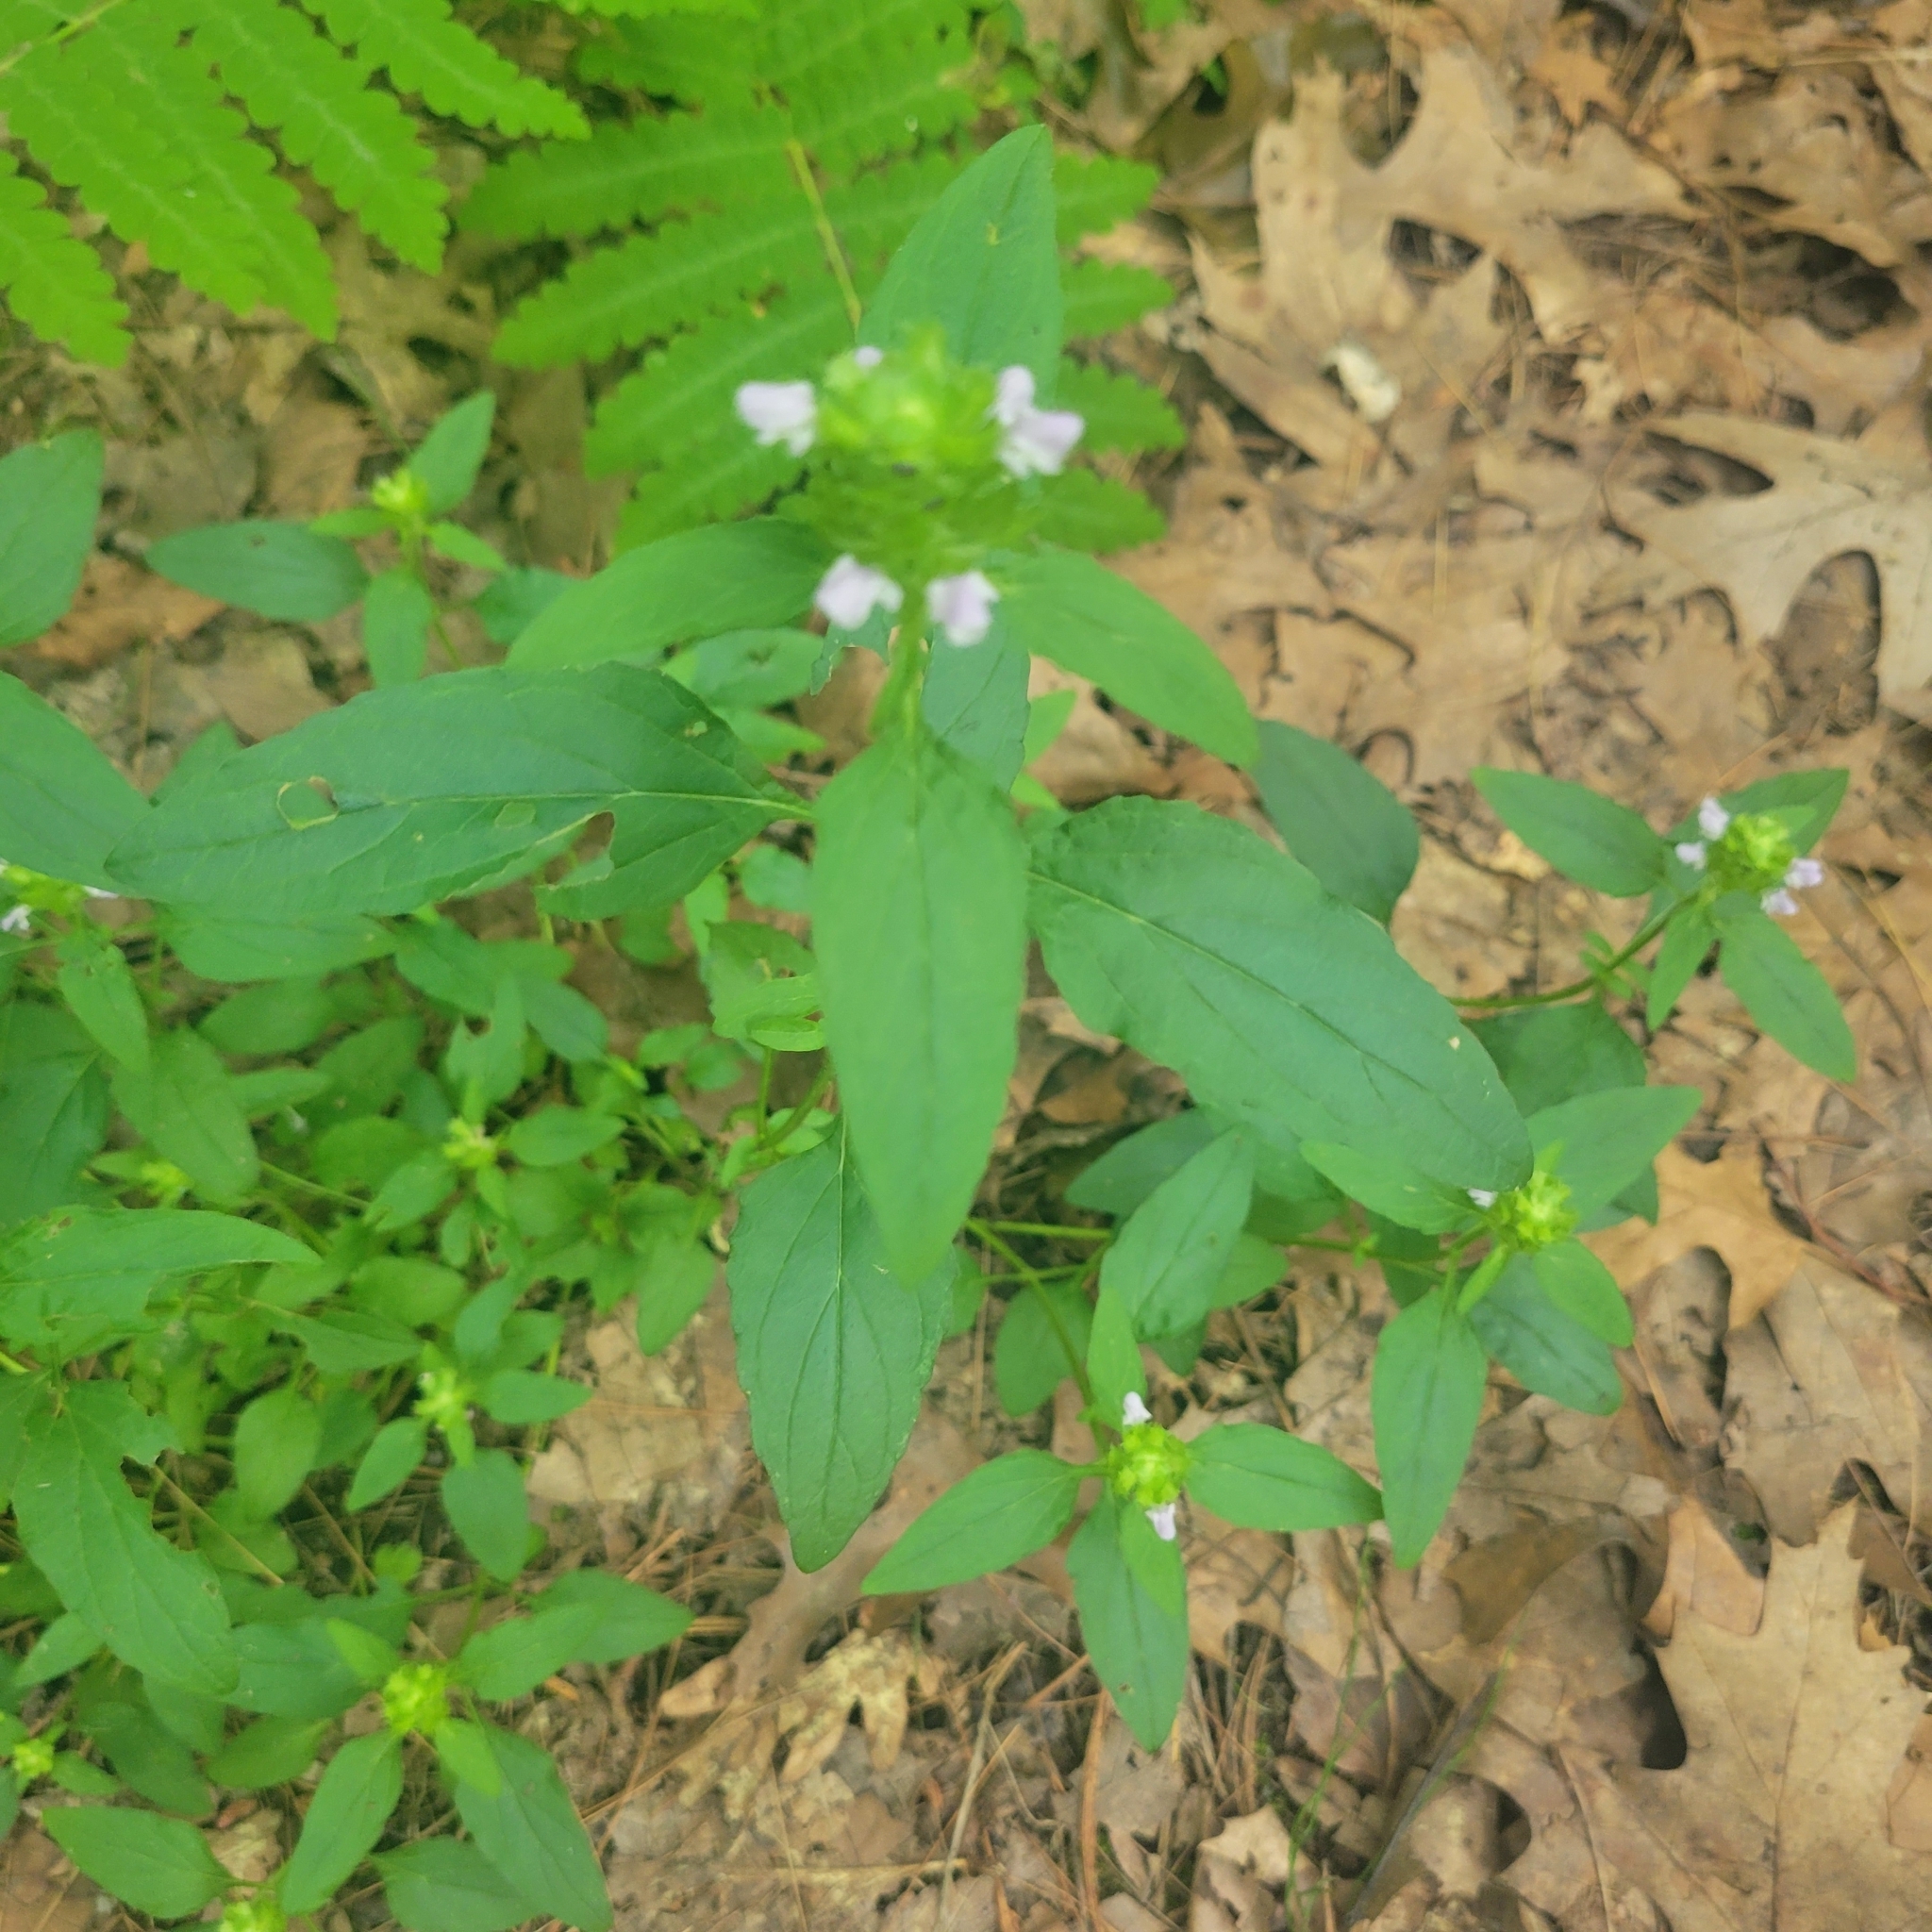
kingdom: Plantae
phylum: Tracheophyta
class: Magnoliopsida
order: Lamiales
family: Lamiaceae
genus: Prunella
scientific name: Prunella vulgaris
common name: Heal-all
